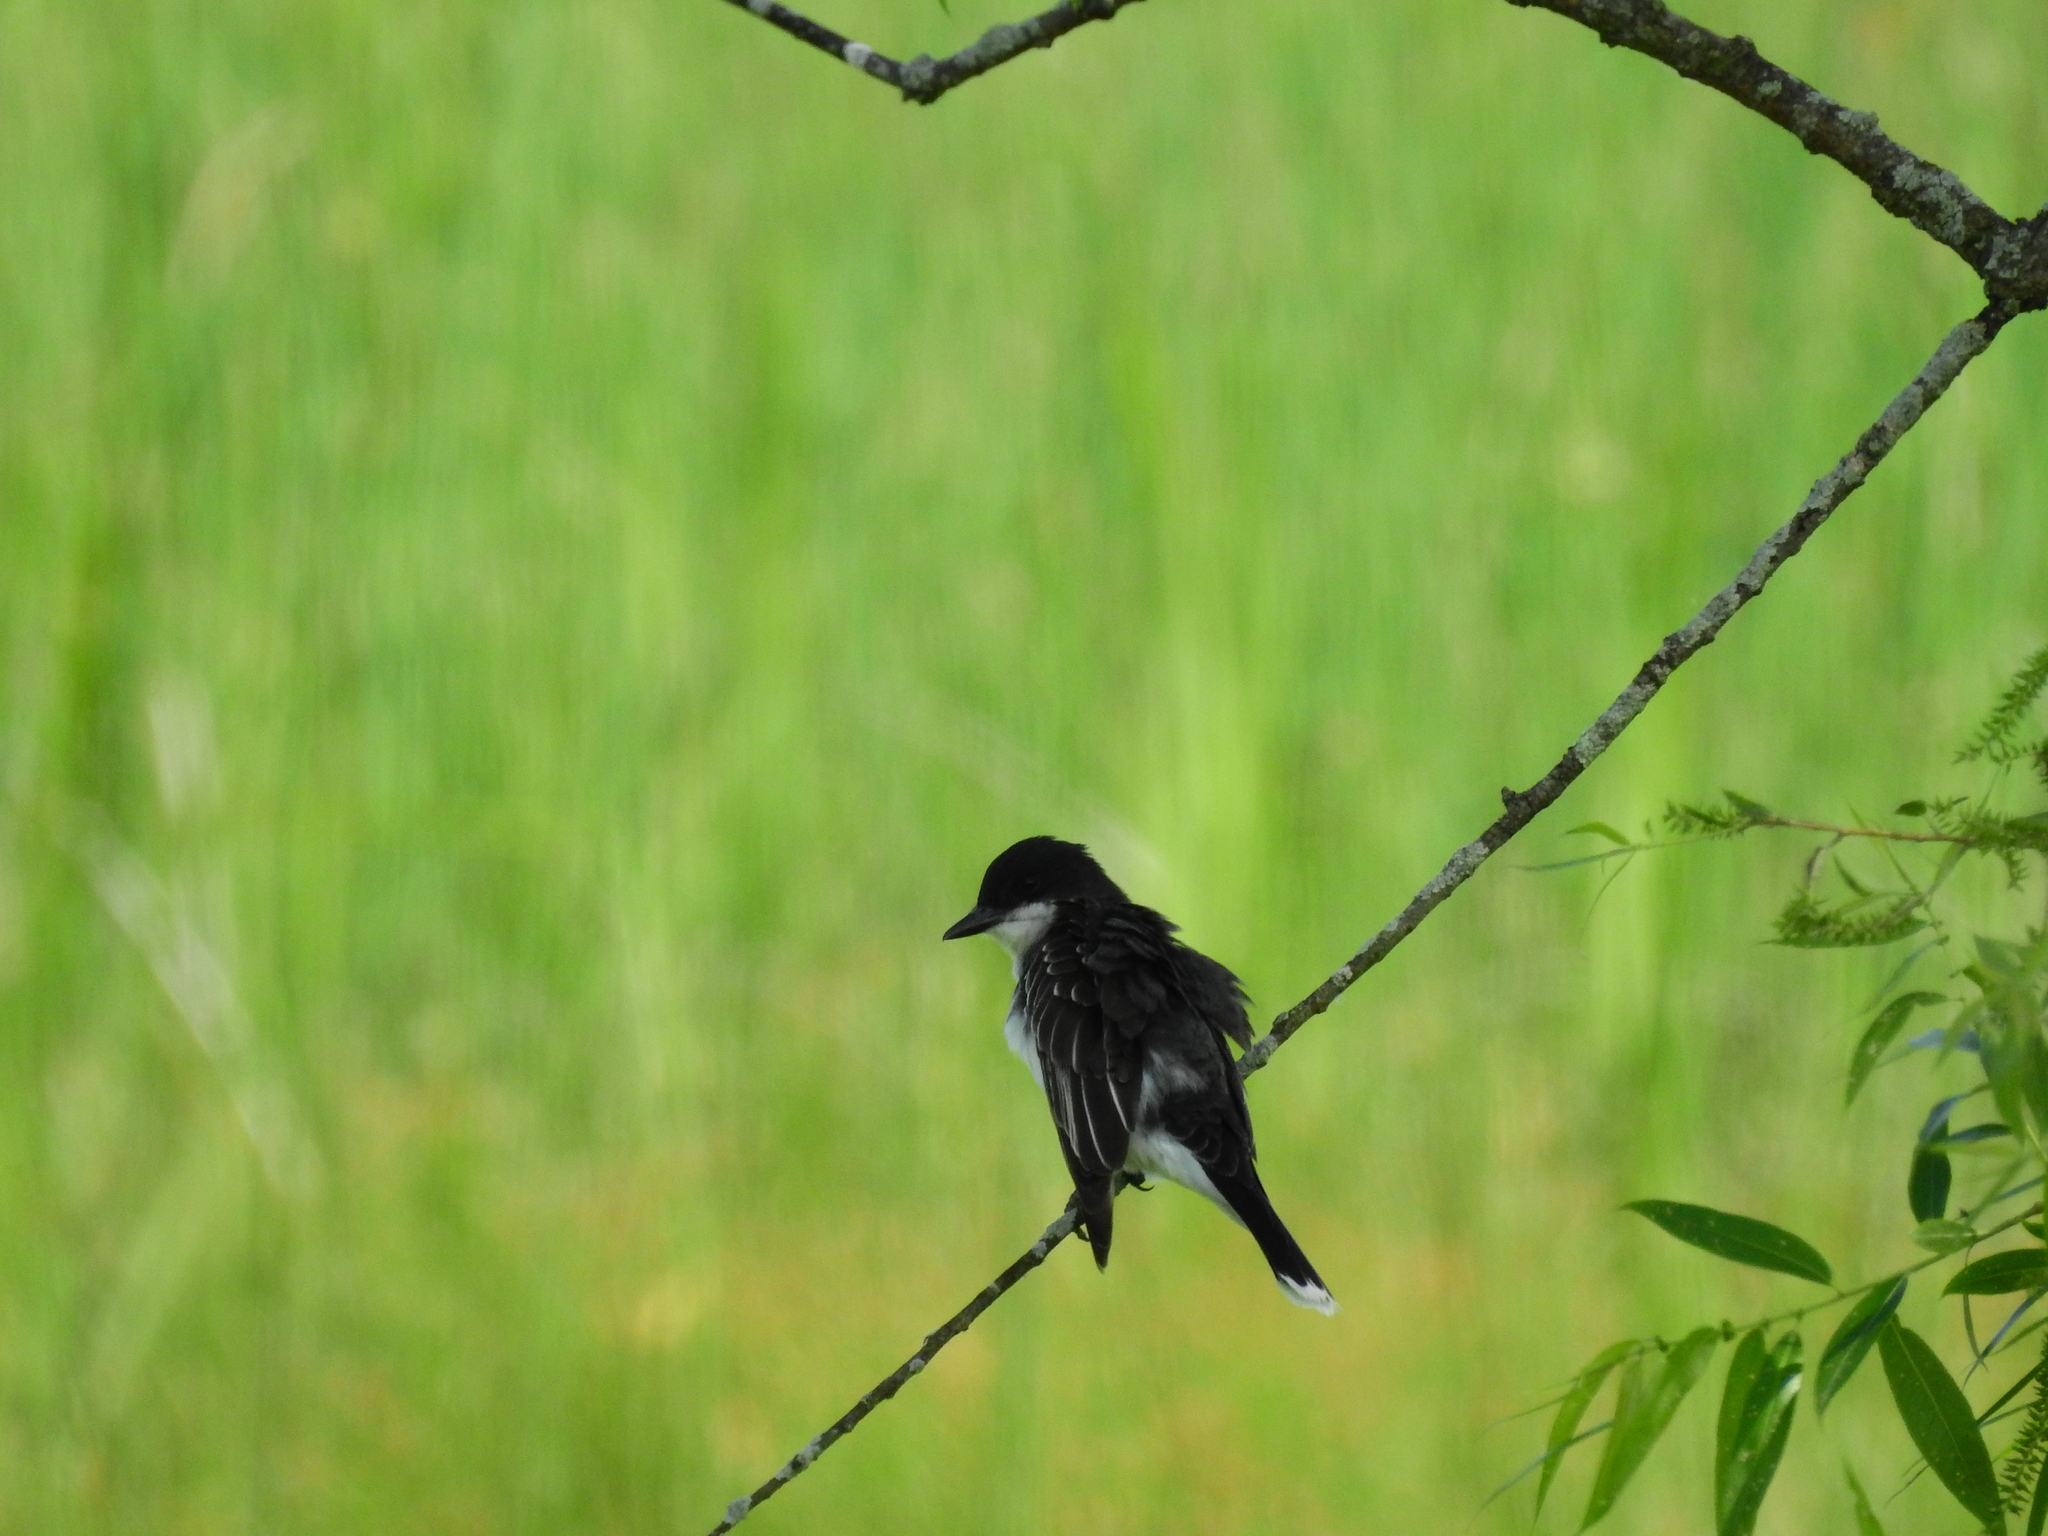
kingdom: Animalia
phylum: Chordata
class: Aves
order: Passeriformes
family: Tyrannidae
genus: Tyrannus
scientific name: Tyrannus tyrannus
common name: Eastern kingbird
